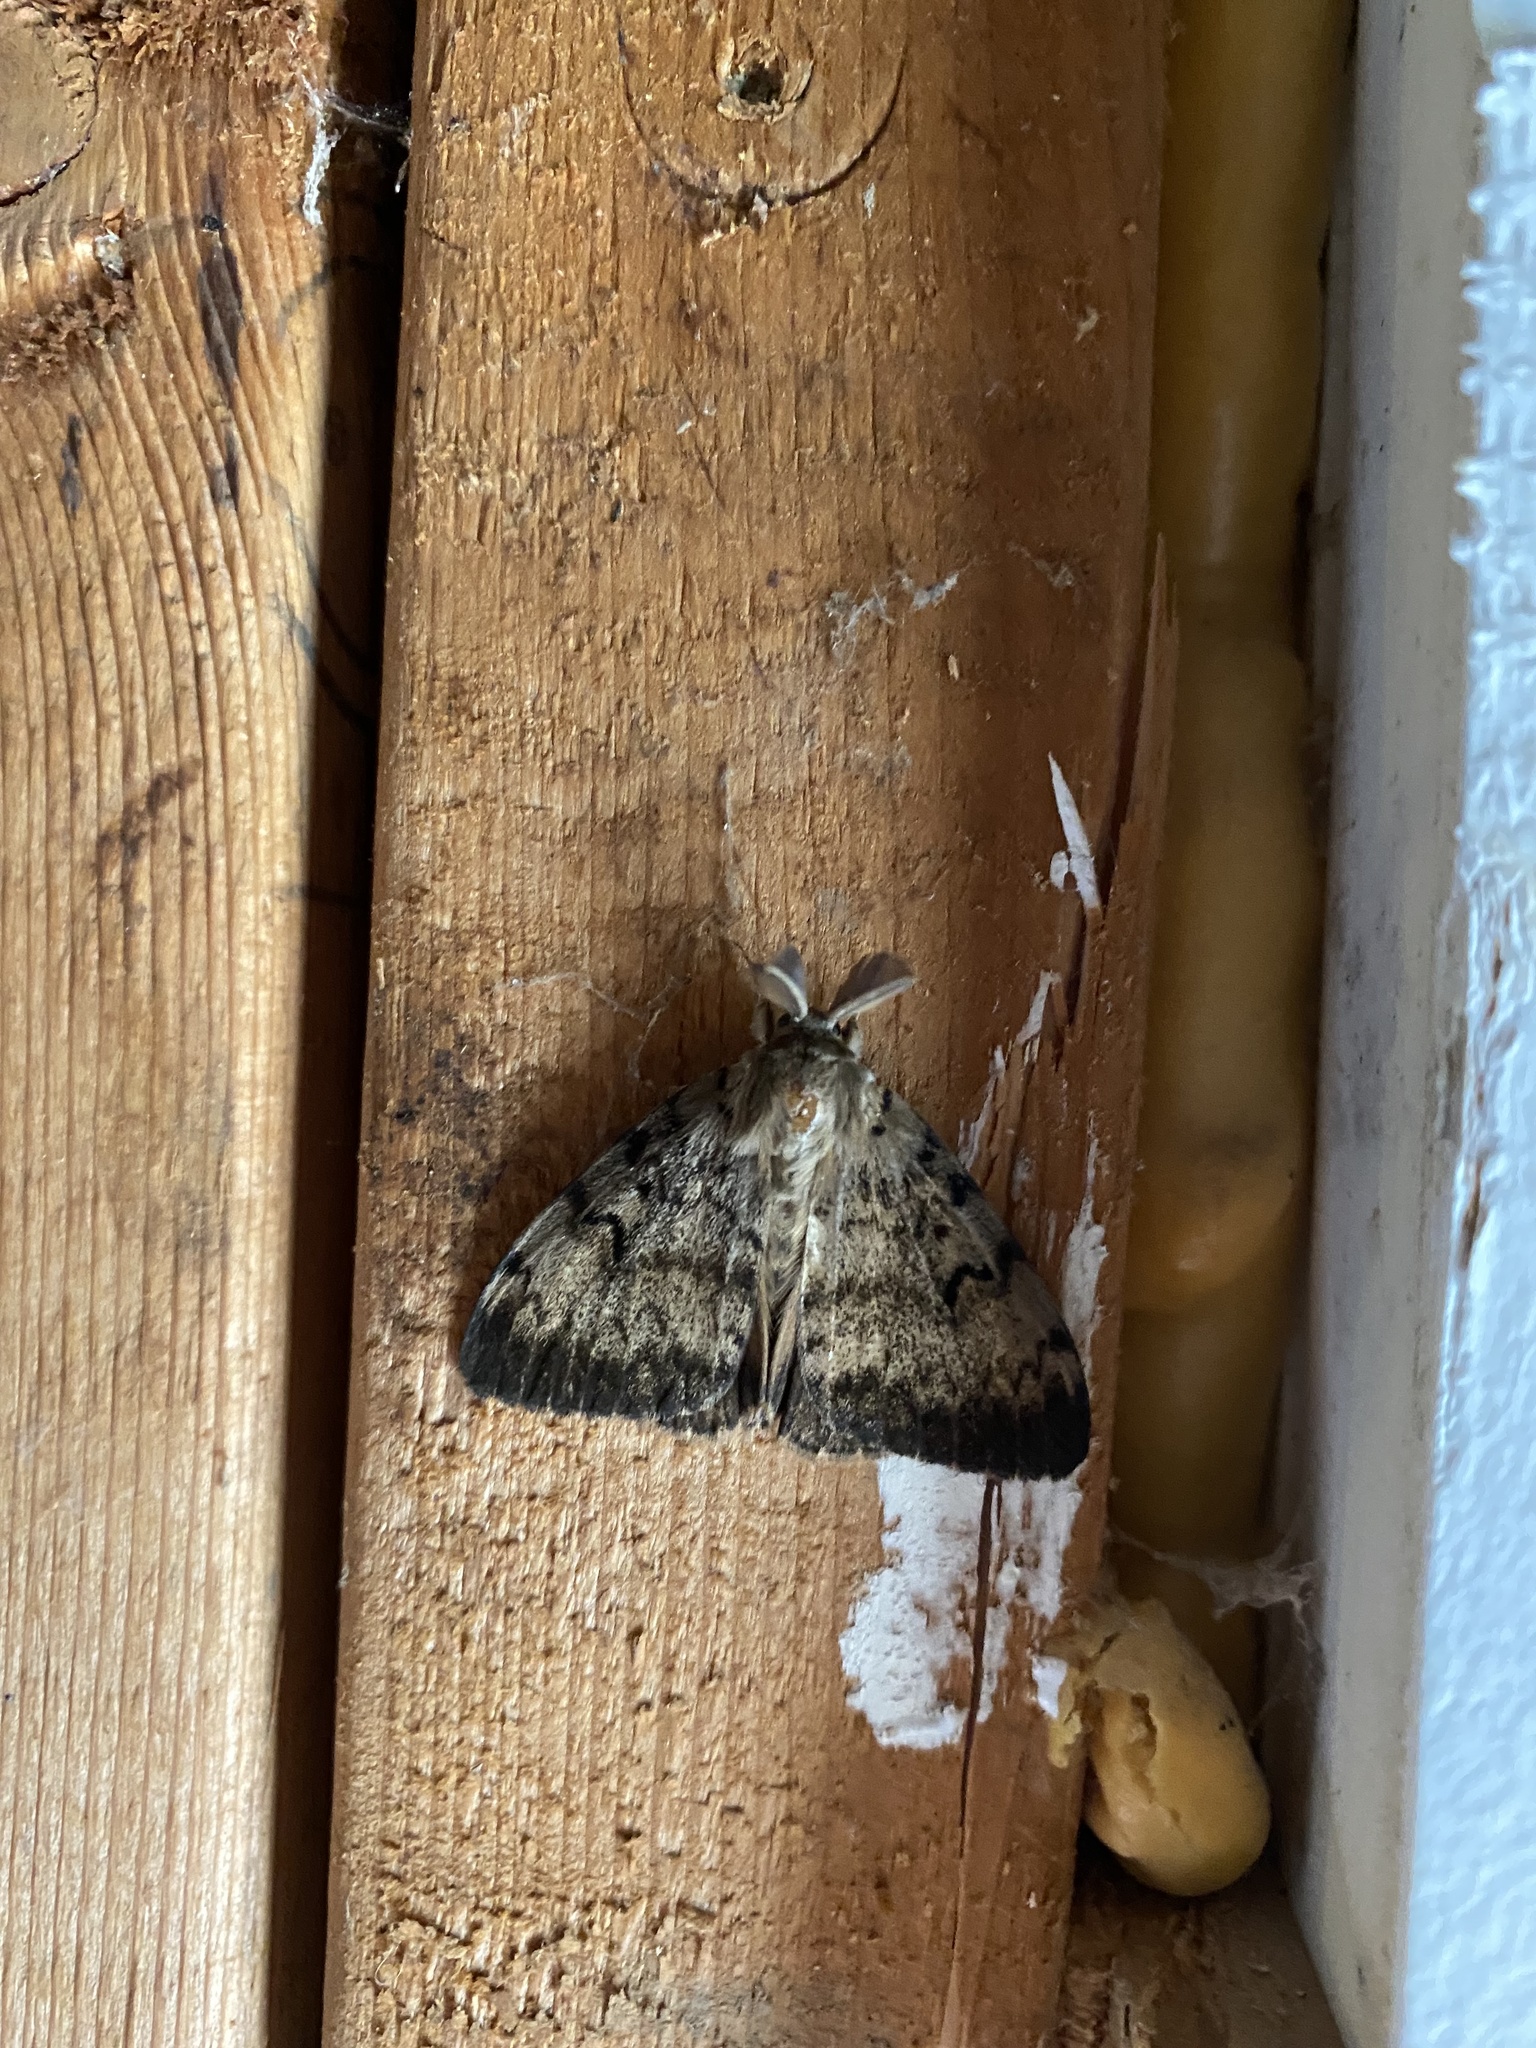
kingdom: Animalia
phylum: Arthropoda
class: Insecta
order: Lepidoptera
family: Erebidae
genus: Lymantria
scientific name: Lymantria dispar
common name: Gypsy moth
